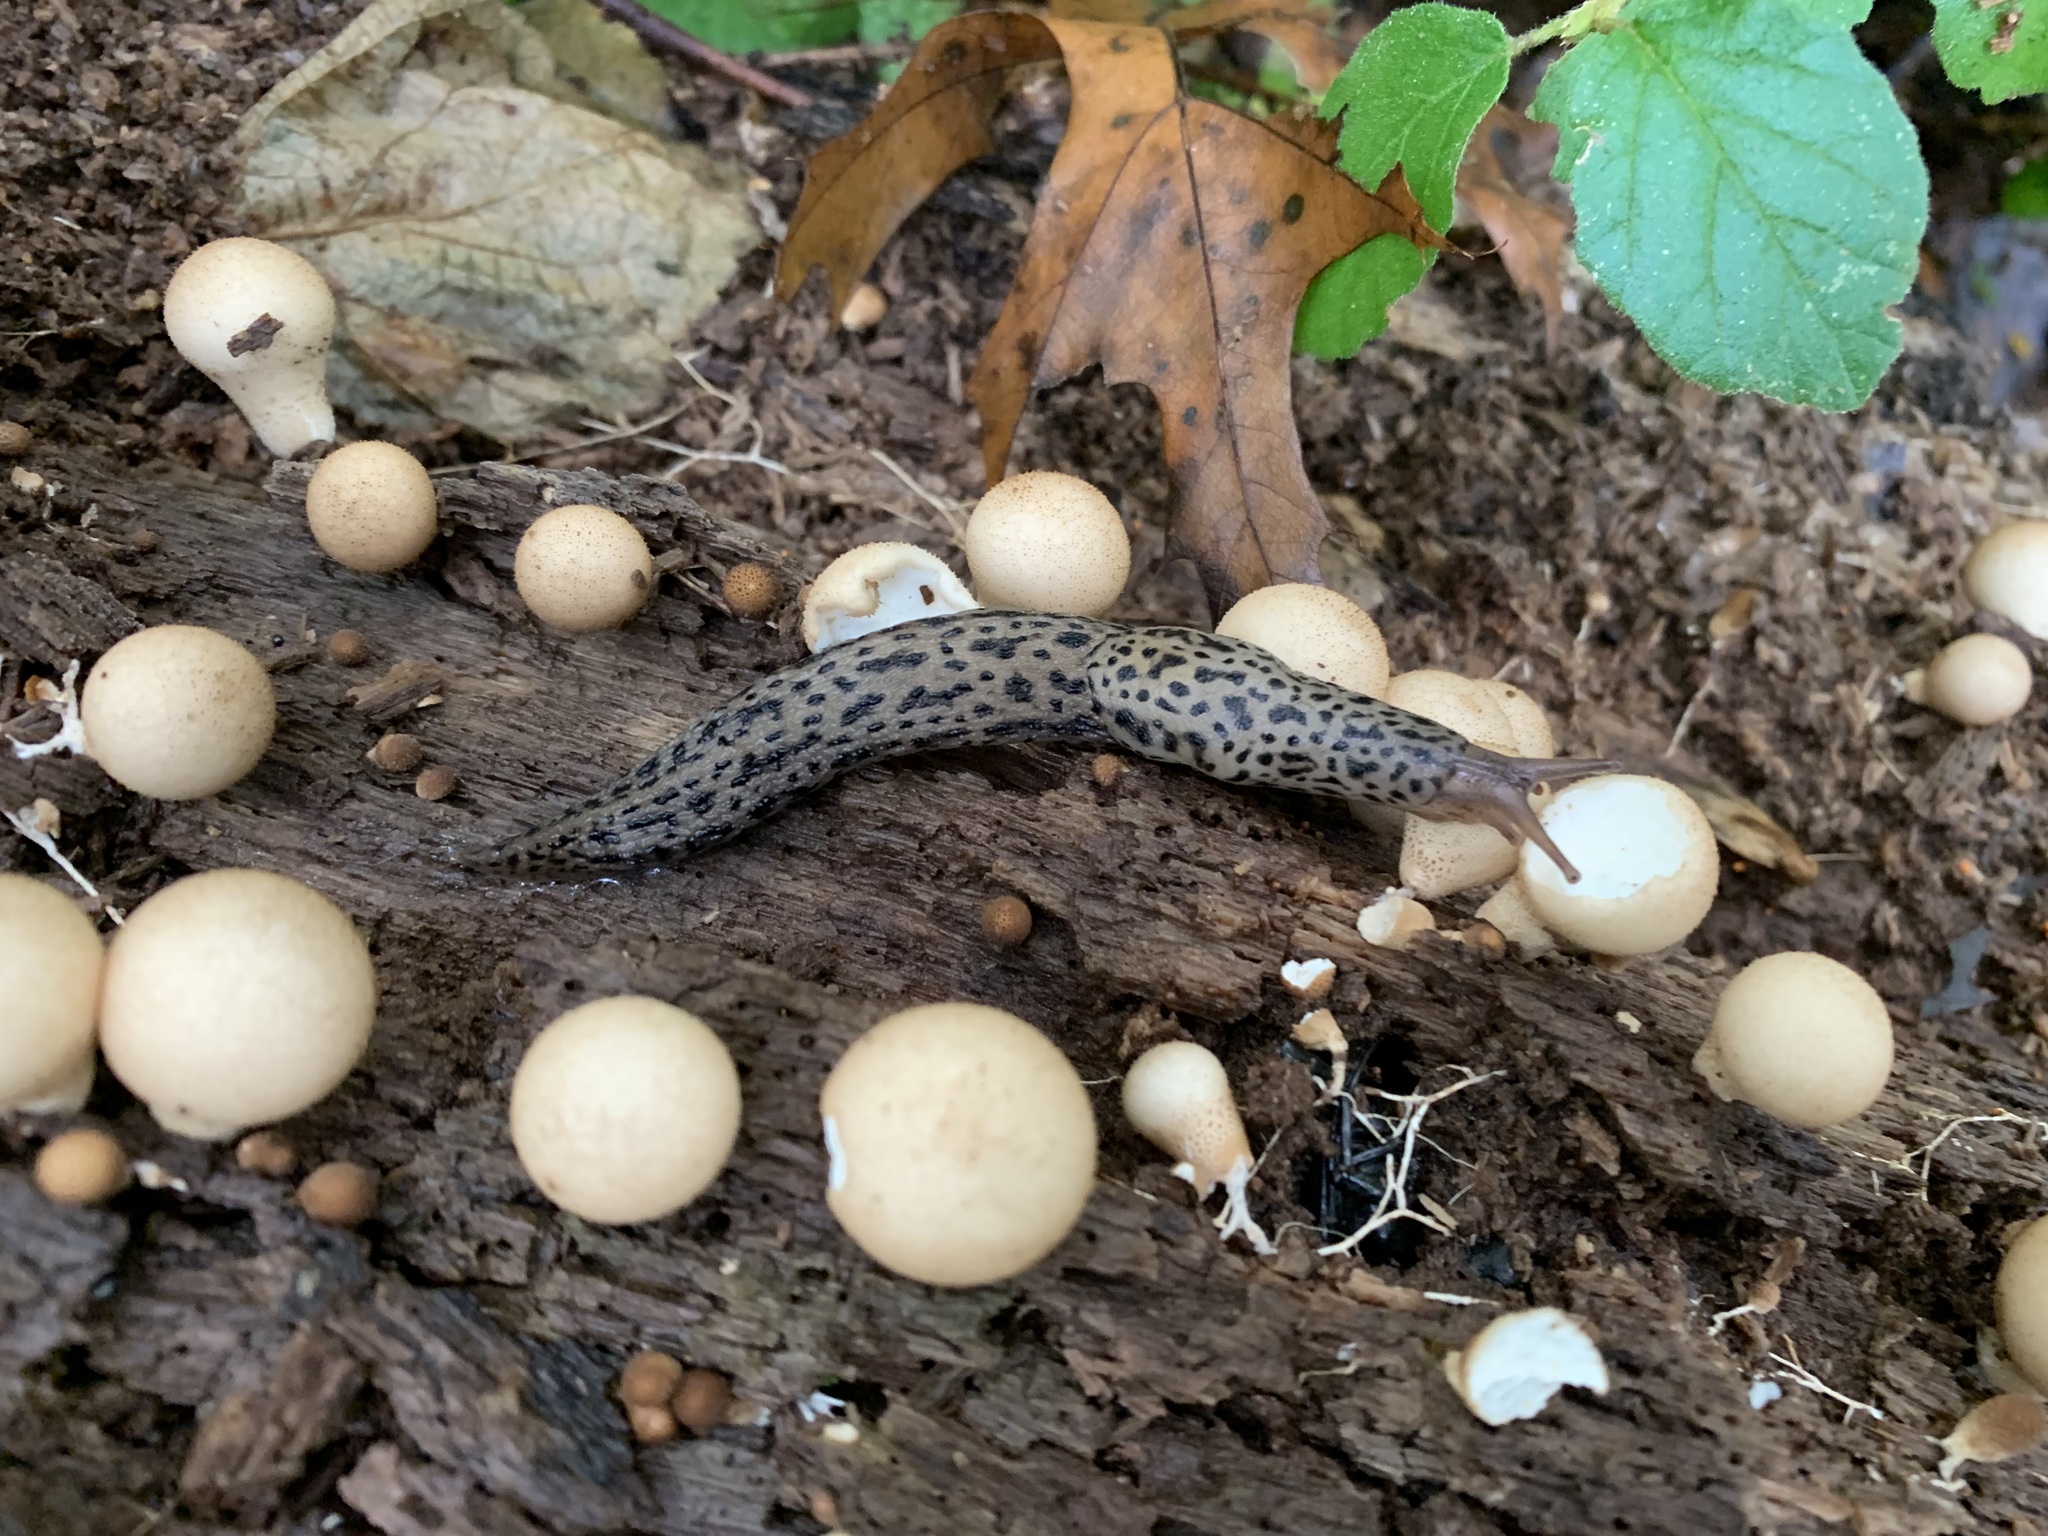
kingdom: Animalia
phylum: Mollusca
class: Gastropoda
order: Stylommatophora
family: Limacidae
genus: Limax
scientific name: Limax maximus
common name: Great grey slug
